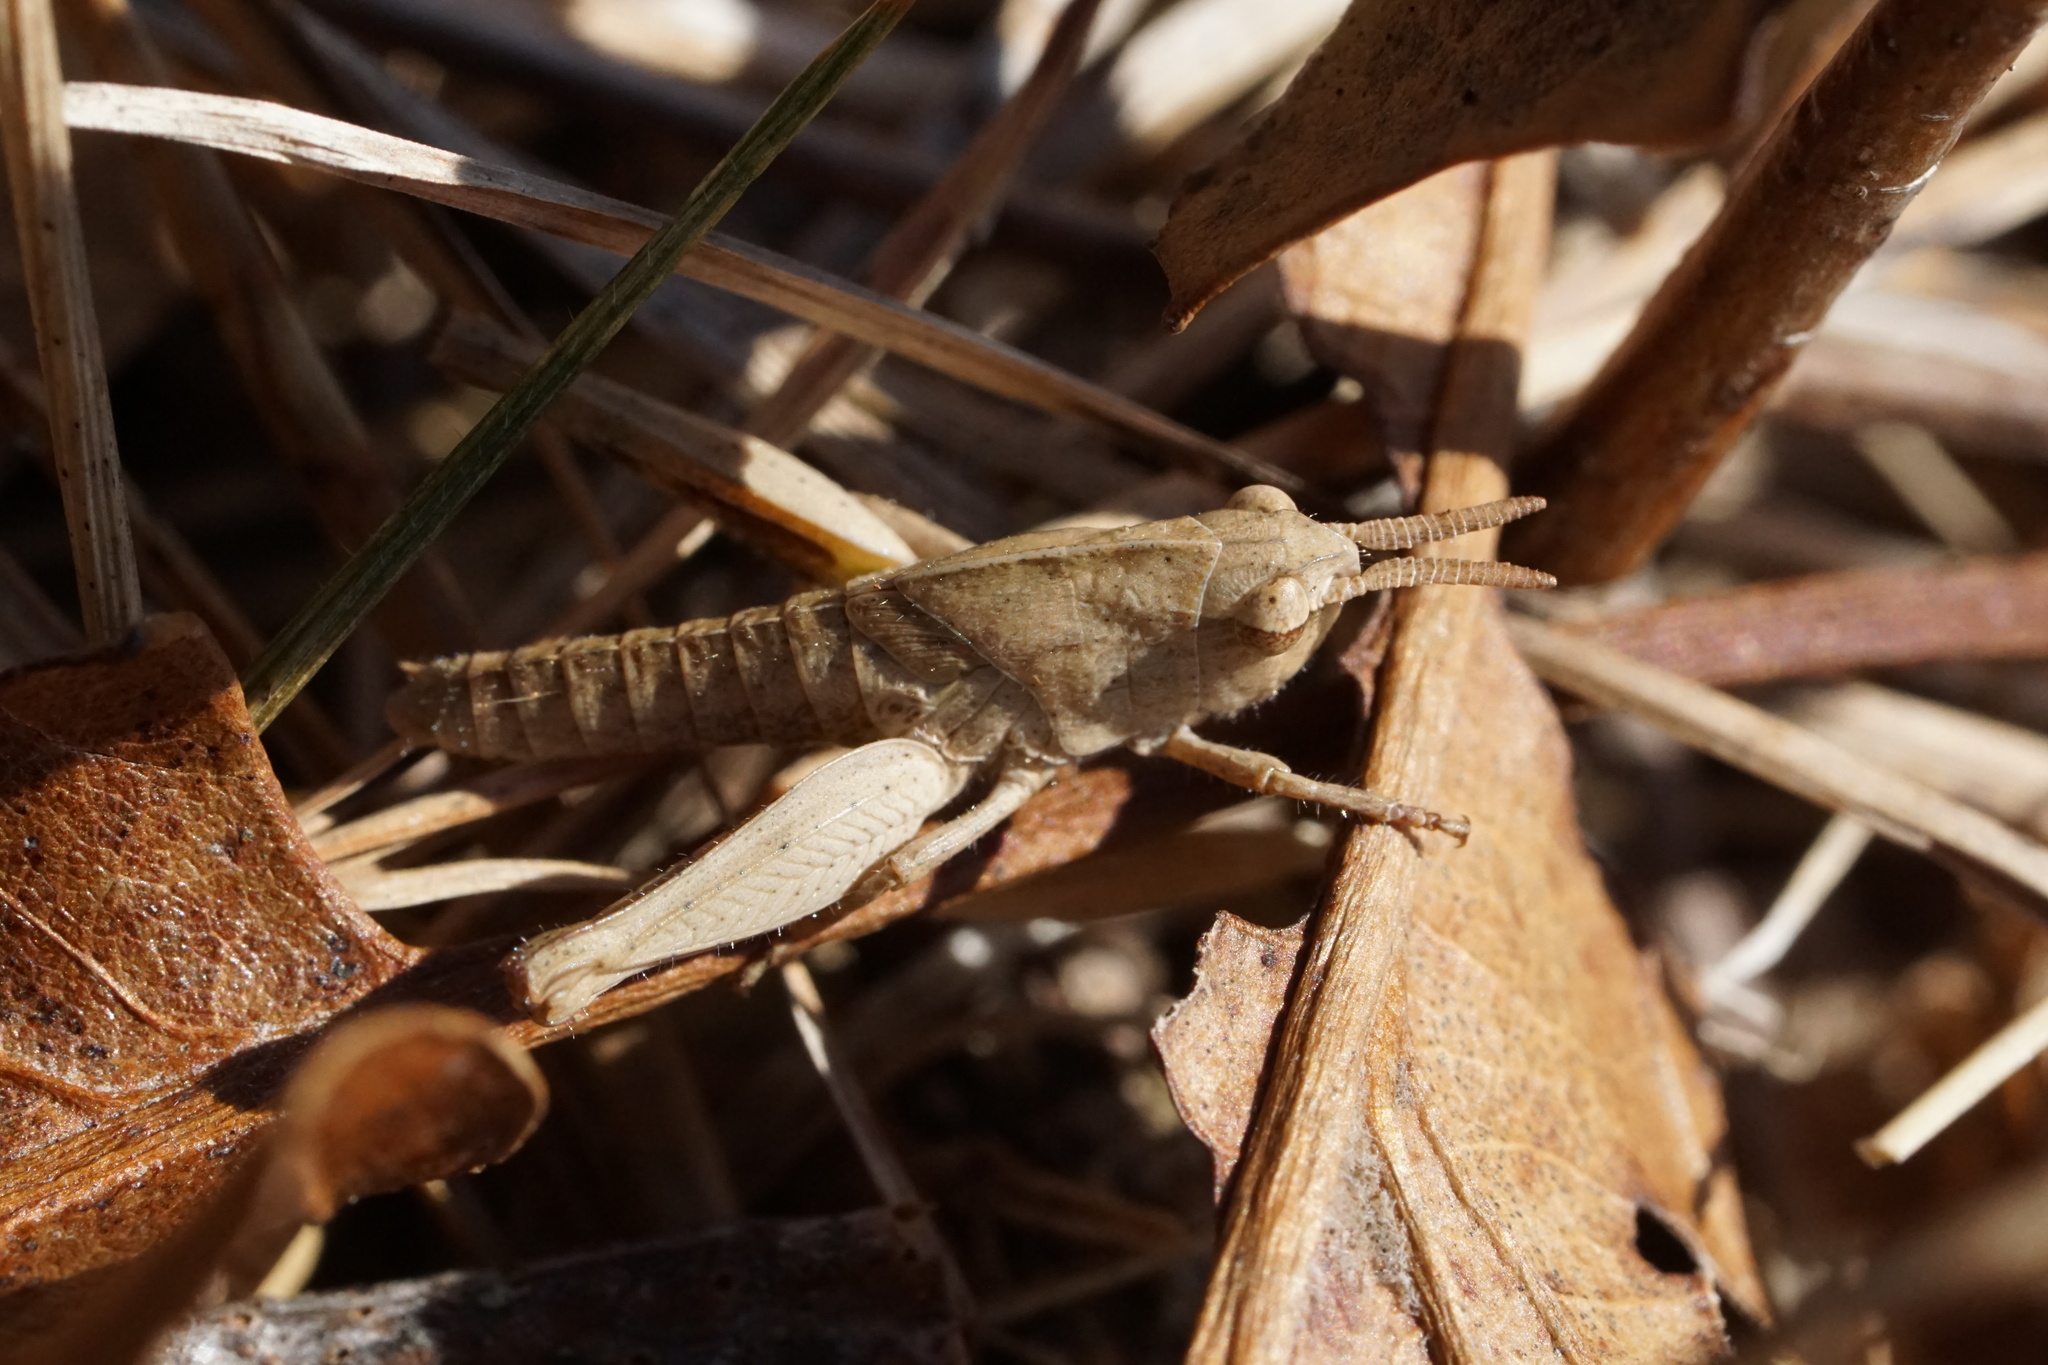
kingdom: Animalia
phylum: Arthropoda
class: Insecta
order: Orthoptera
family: Acrididae
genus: Chortophaga
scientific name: Chortophaga viridifasciata
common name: Green-striped grasshopper
